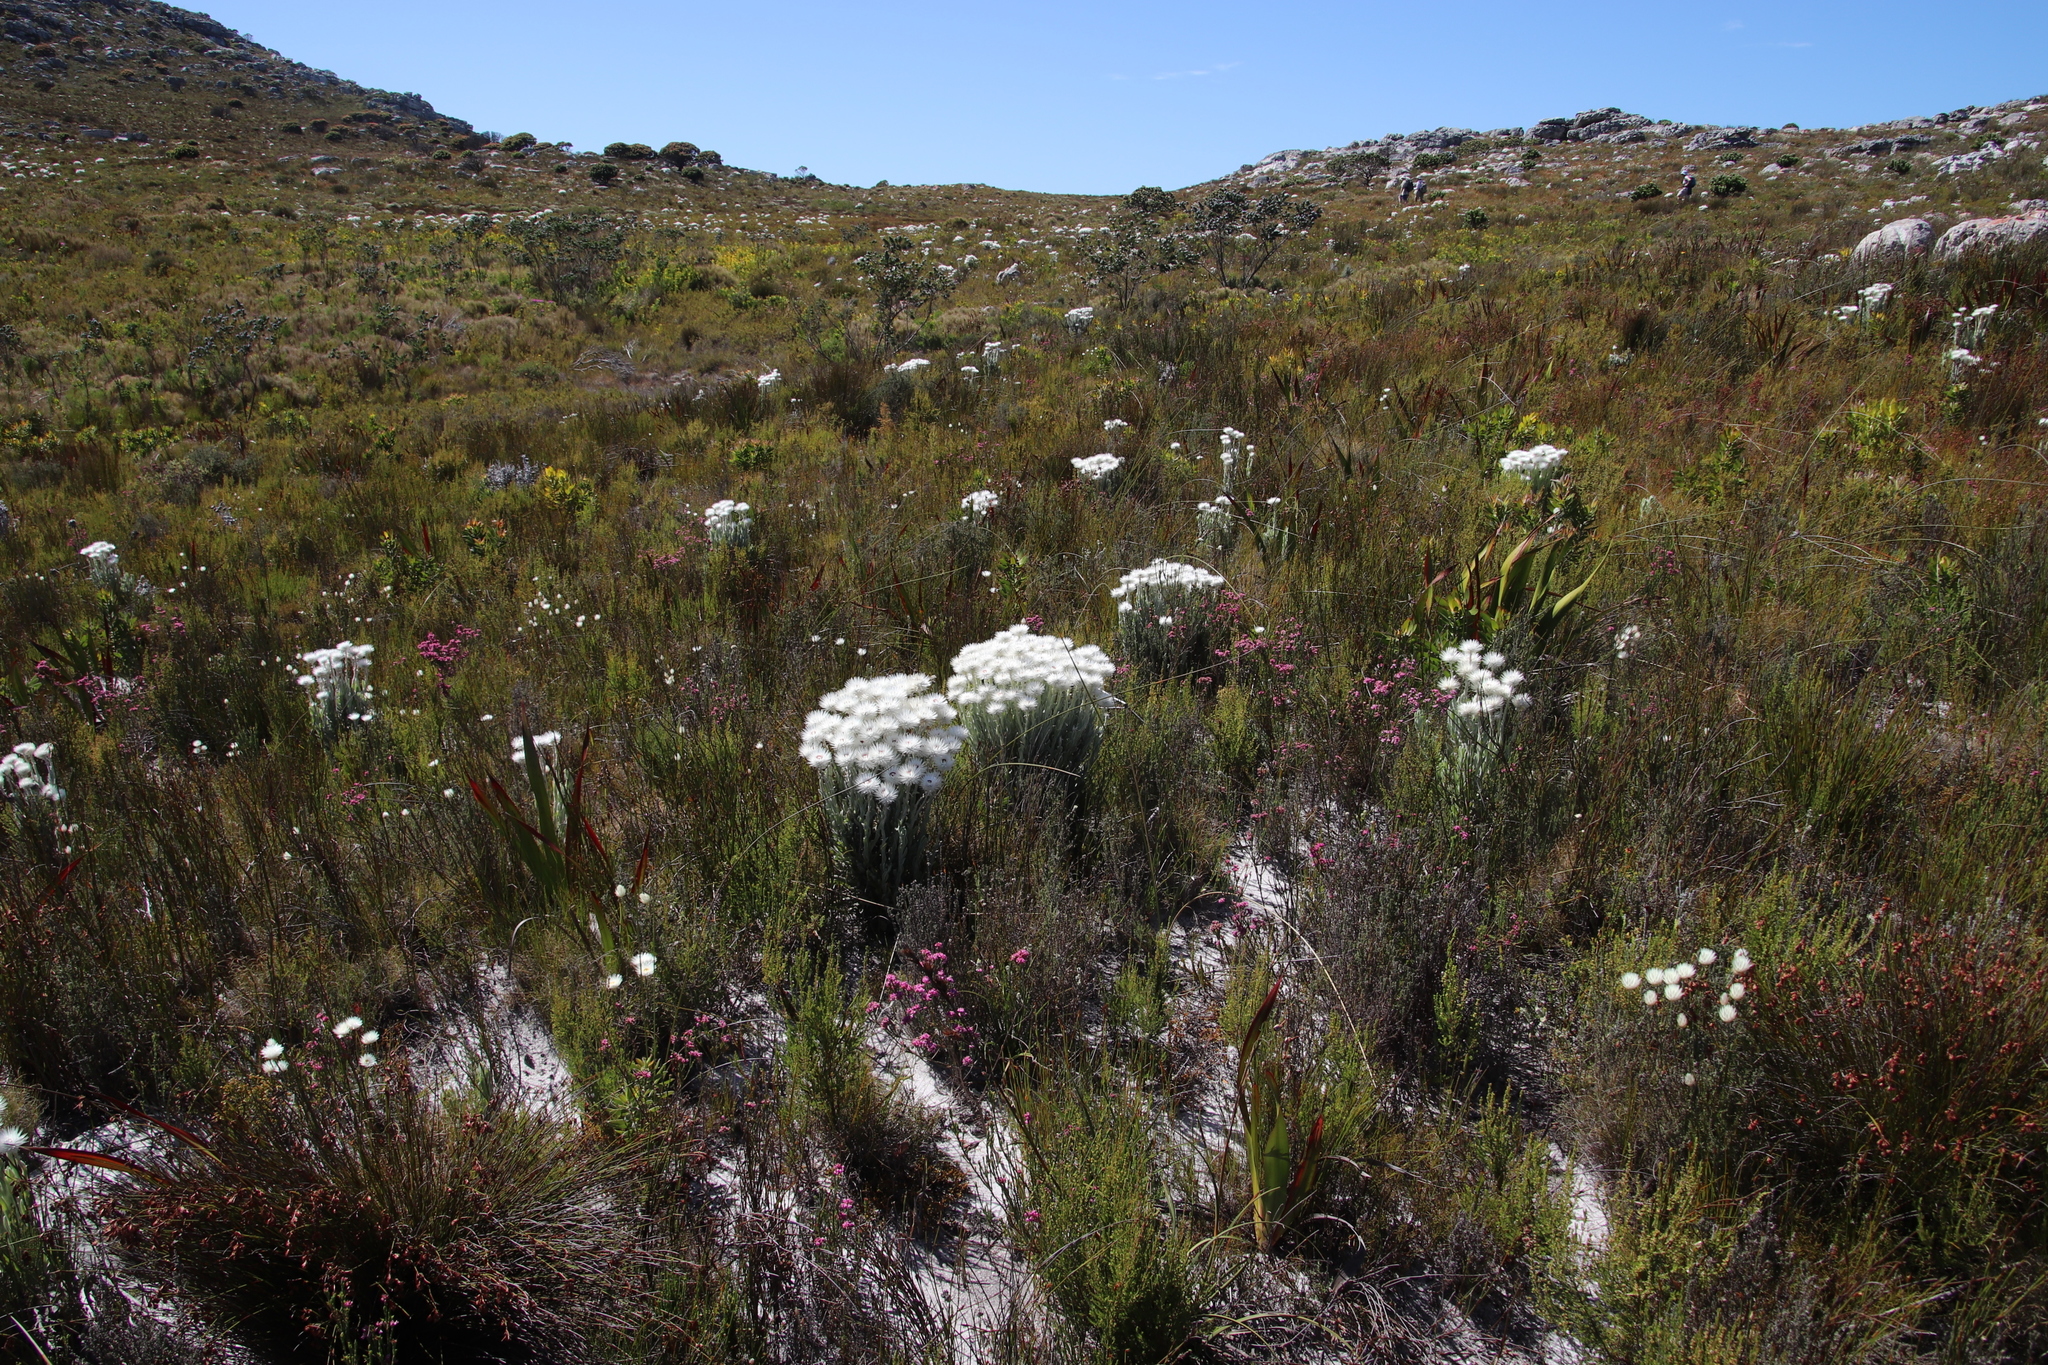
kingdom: Plantae
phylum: Tracheophyta
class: Magnoliopsida
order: Asterales
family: Asteraceae
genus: Syncarpha
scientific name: Syncarpha vestita
